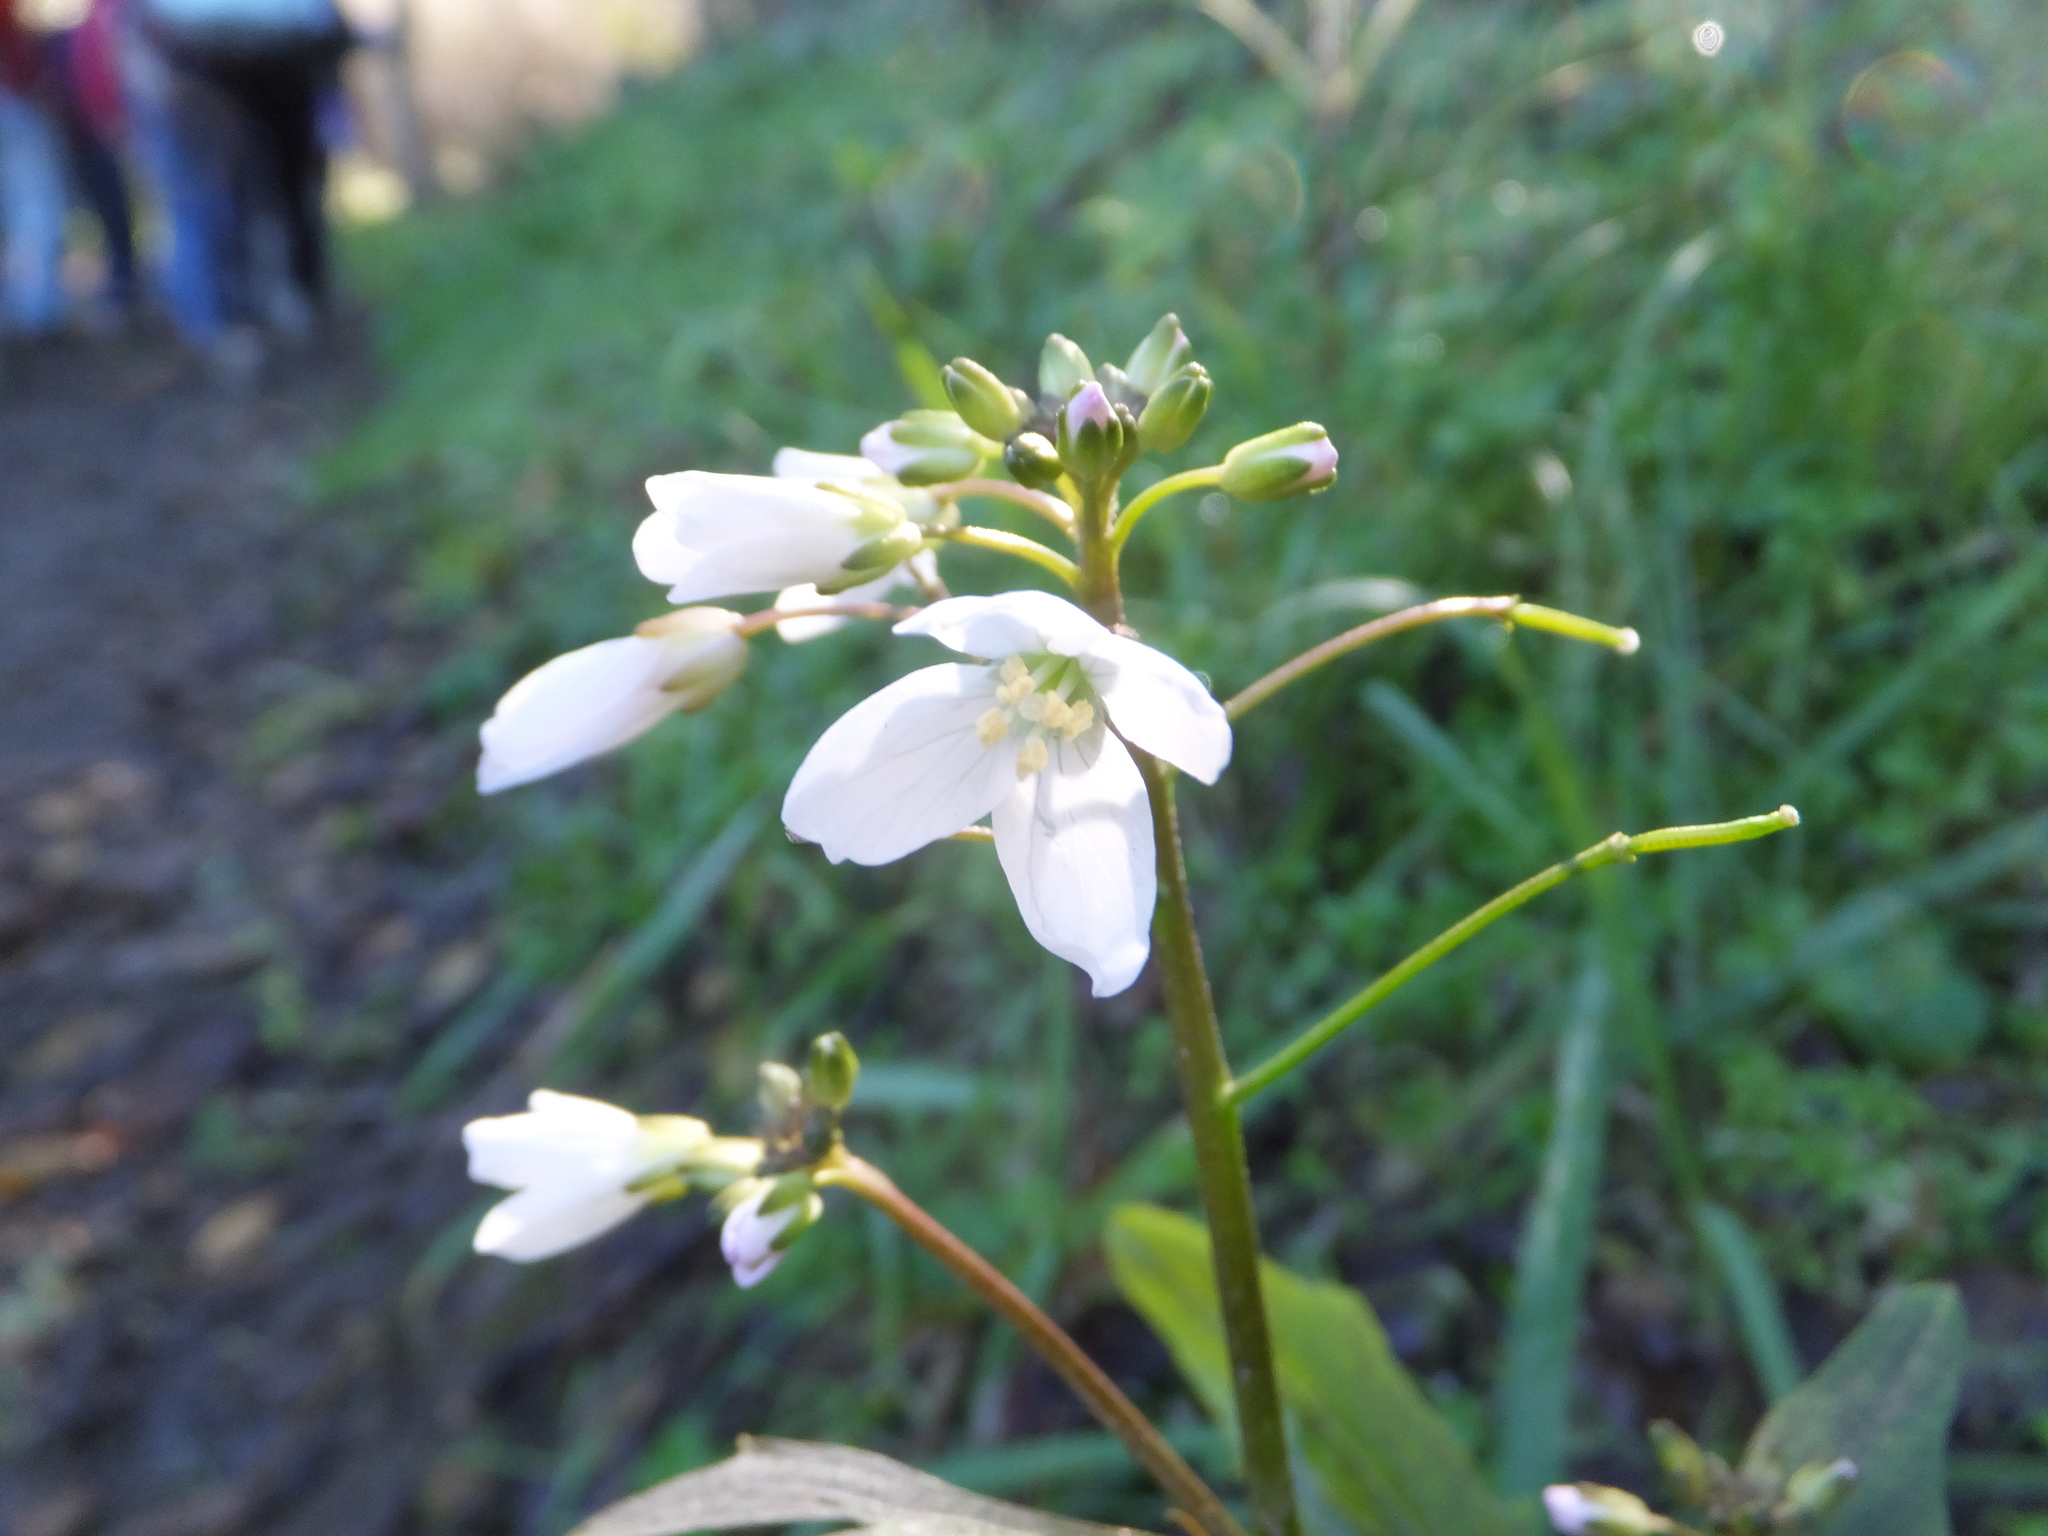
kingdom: Plantae
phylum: Tracheophyta
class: Magnoliopsida
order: Brassicales
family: Brassicaceae
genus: Cardamine
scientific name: Cardamine californica
